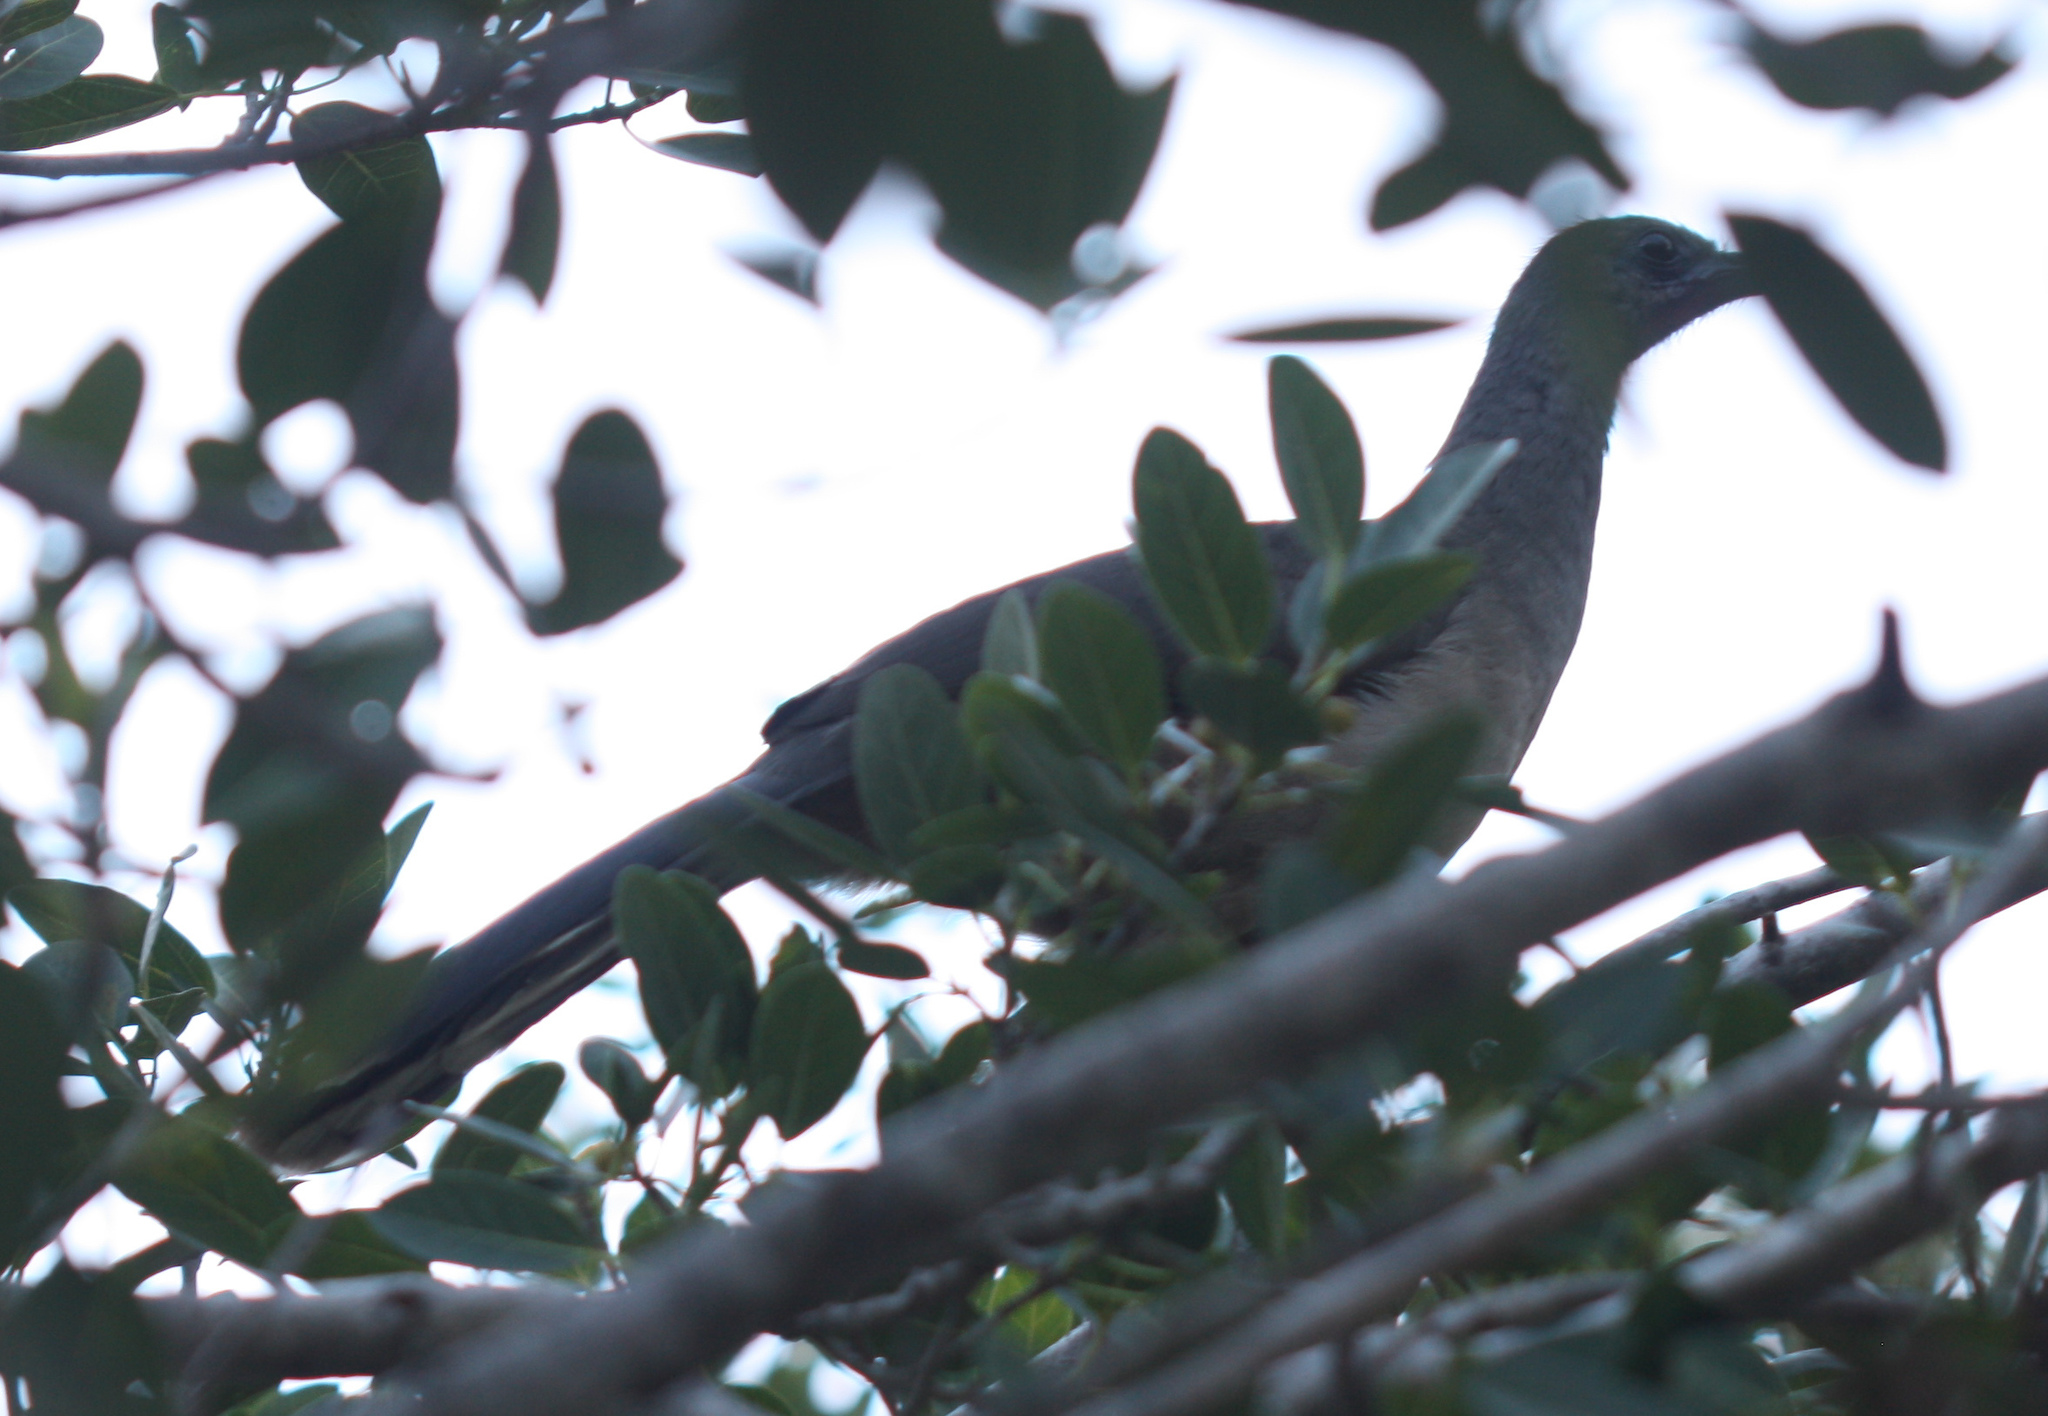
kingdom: Animalia
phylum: Chordata
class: Aves
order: Galliformes
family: Cracidae
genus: Ortalis
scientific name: Ortalis vetula
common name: Plain chachalaca
